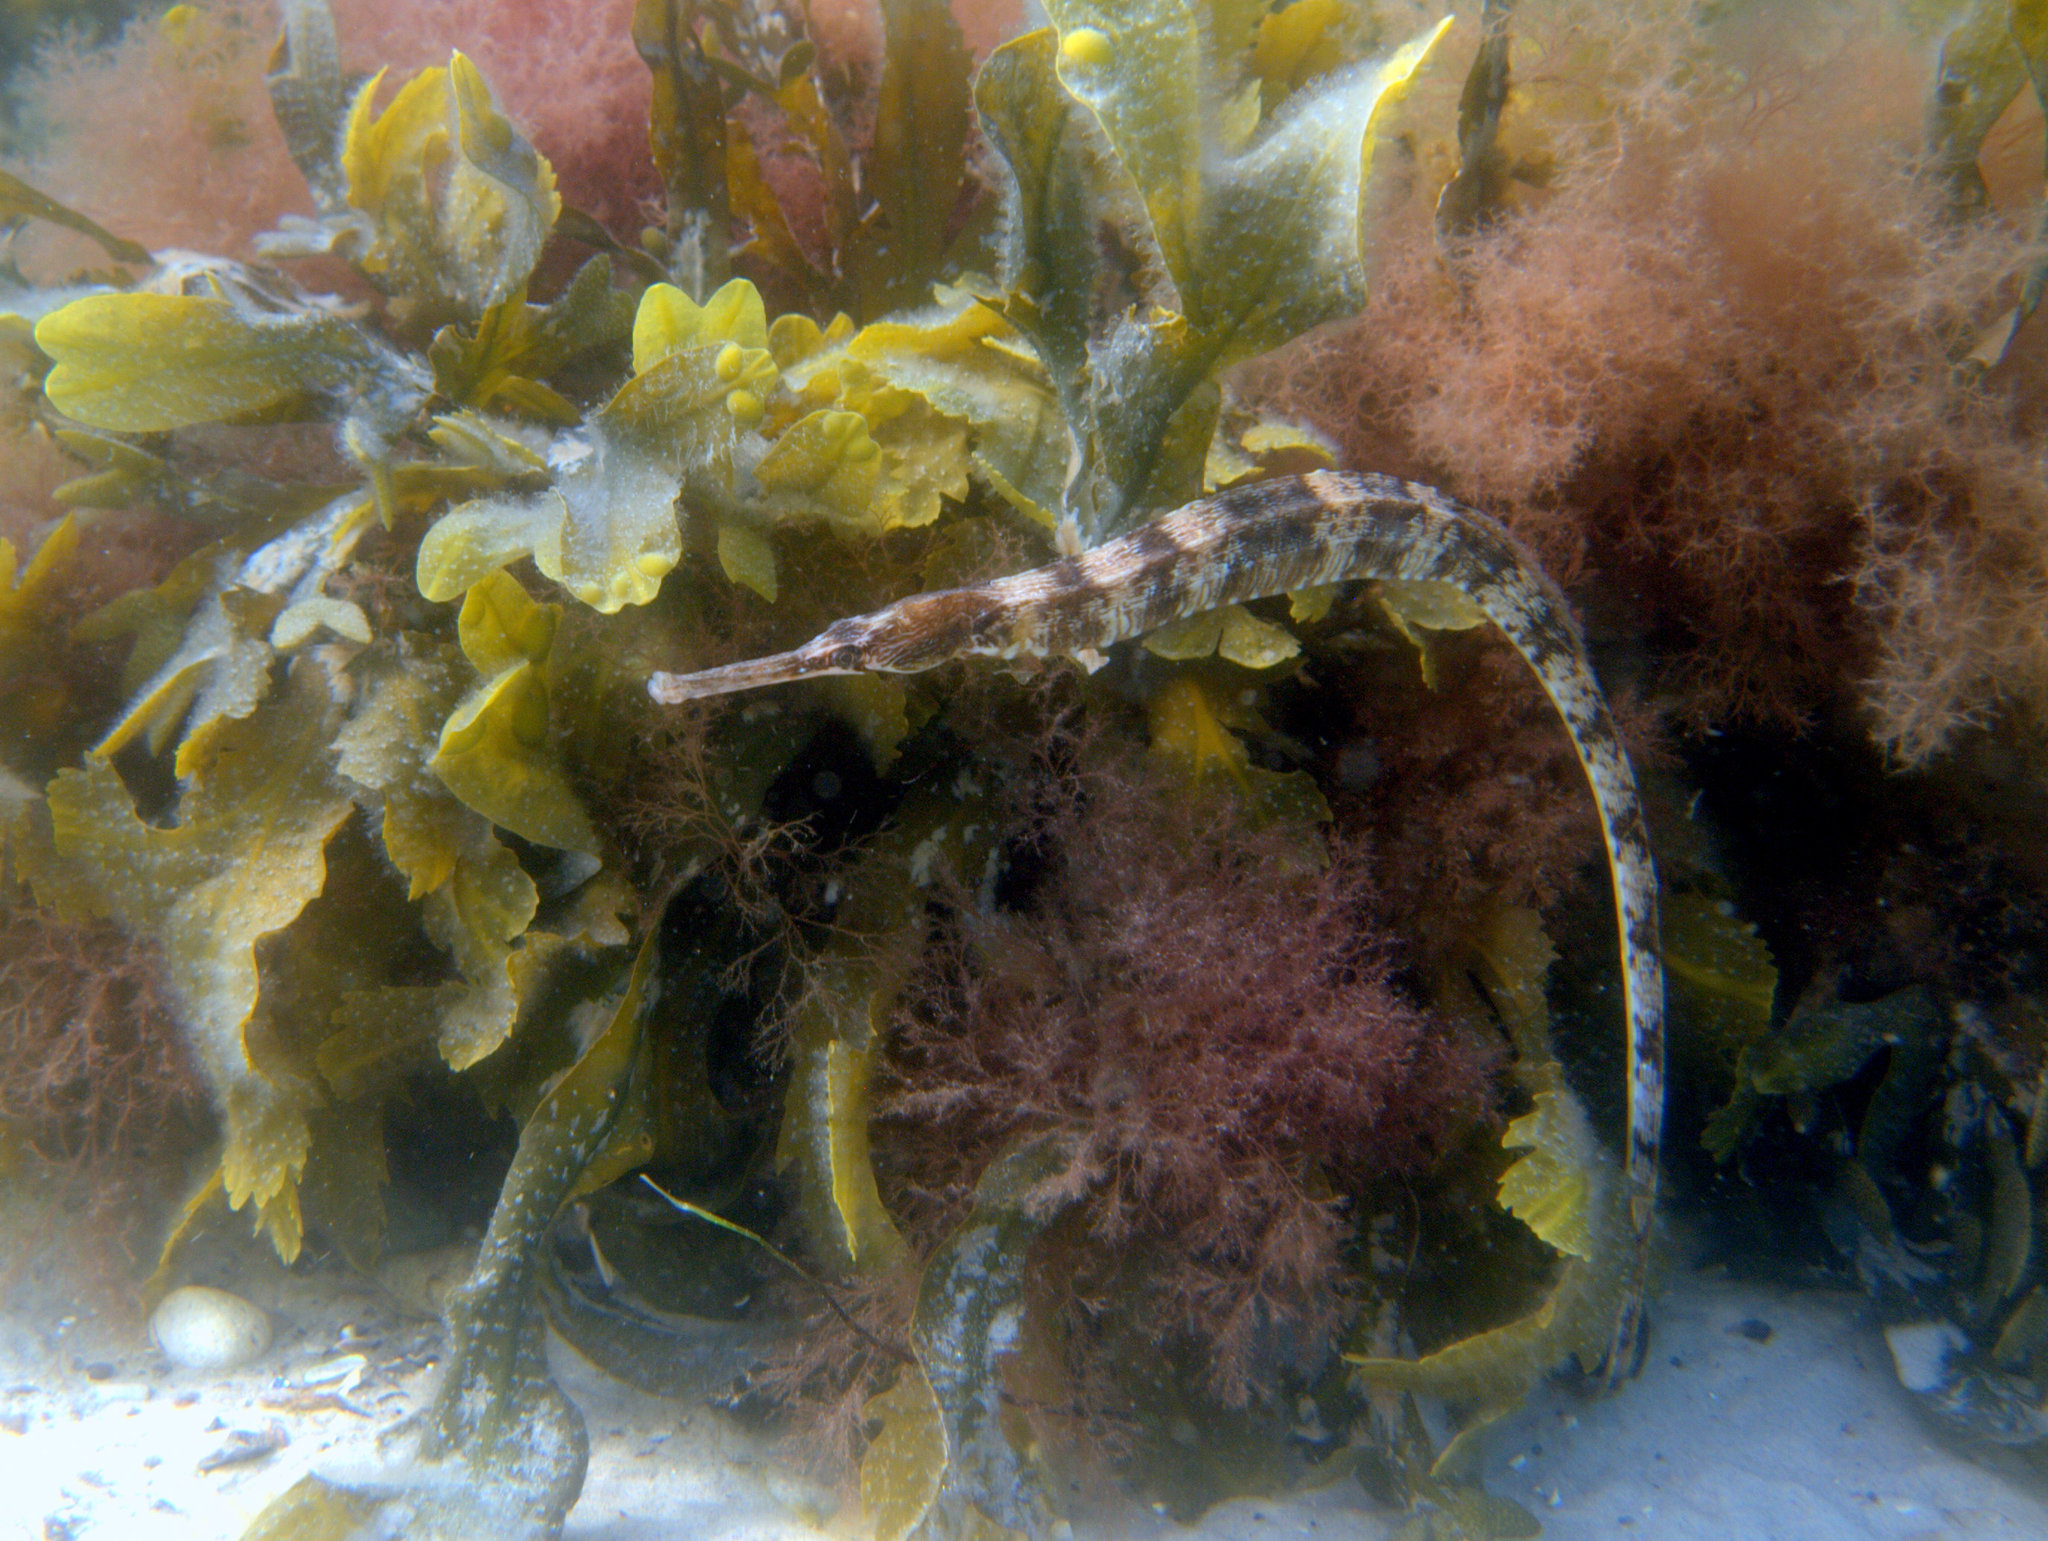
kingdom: Animalia
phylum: Chordata
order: Syngnathiformes
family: Syngnathidae
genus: Syngnathus
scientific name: Syngnathus acus
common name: Greater pipefish
